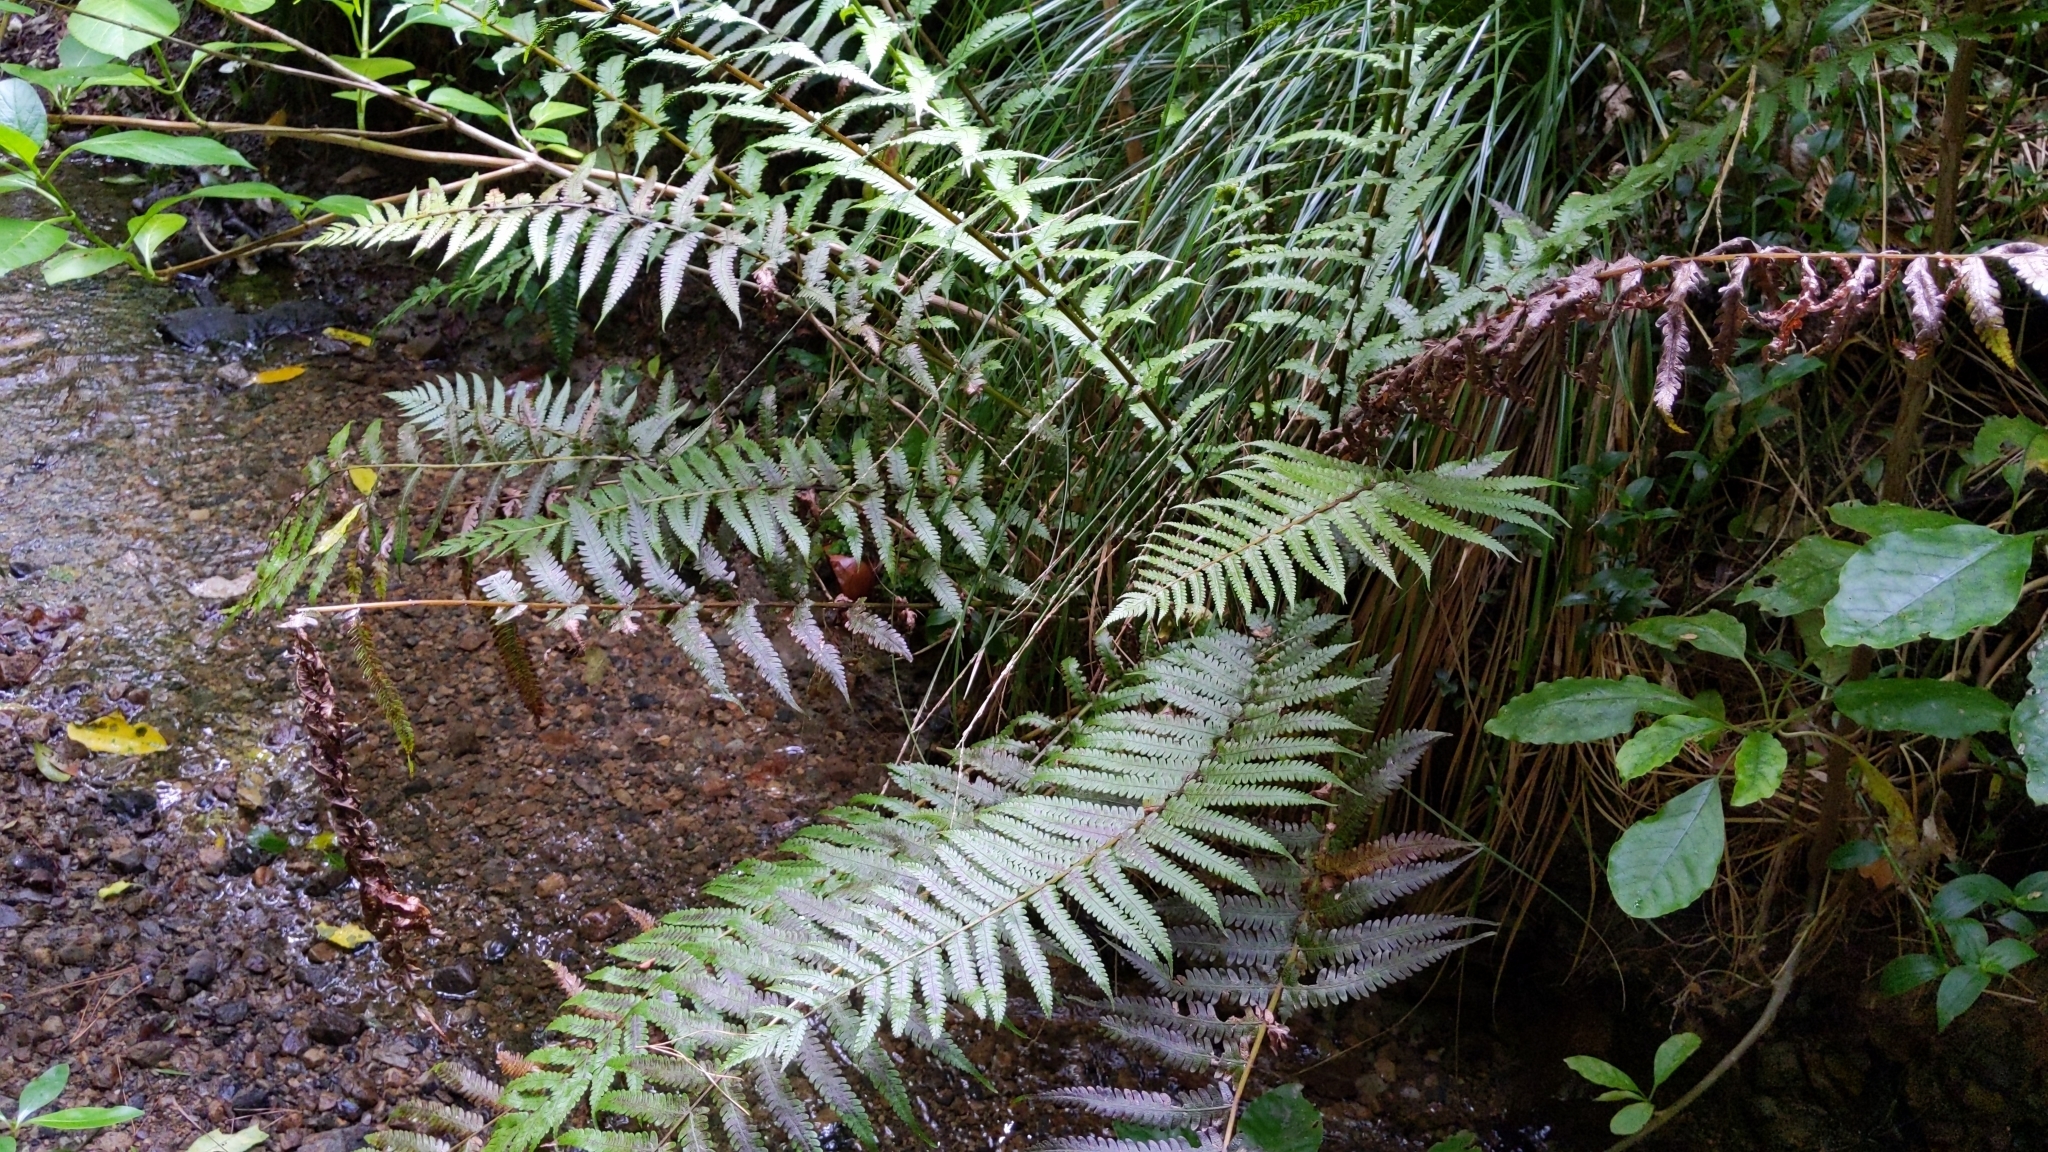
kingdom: Plantae
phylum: Tracheophyta
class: Polypodiopsida
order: Polypodiales
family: Thelypteridaceae
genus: Pakau
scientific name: Pakau pennigera
